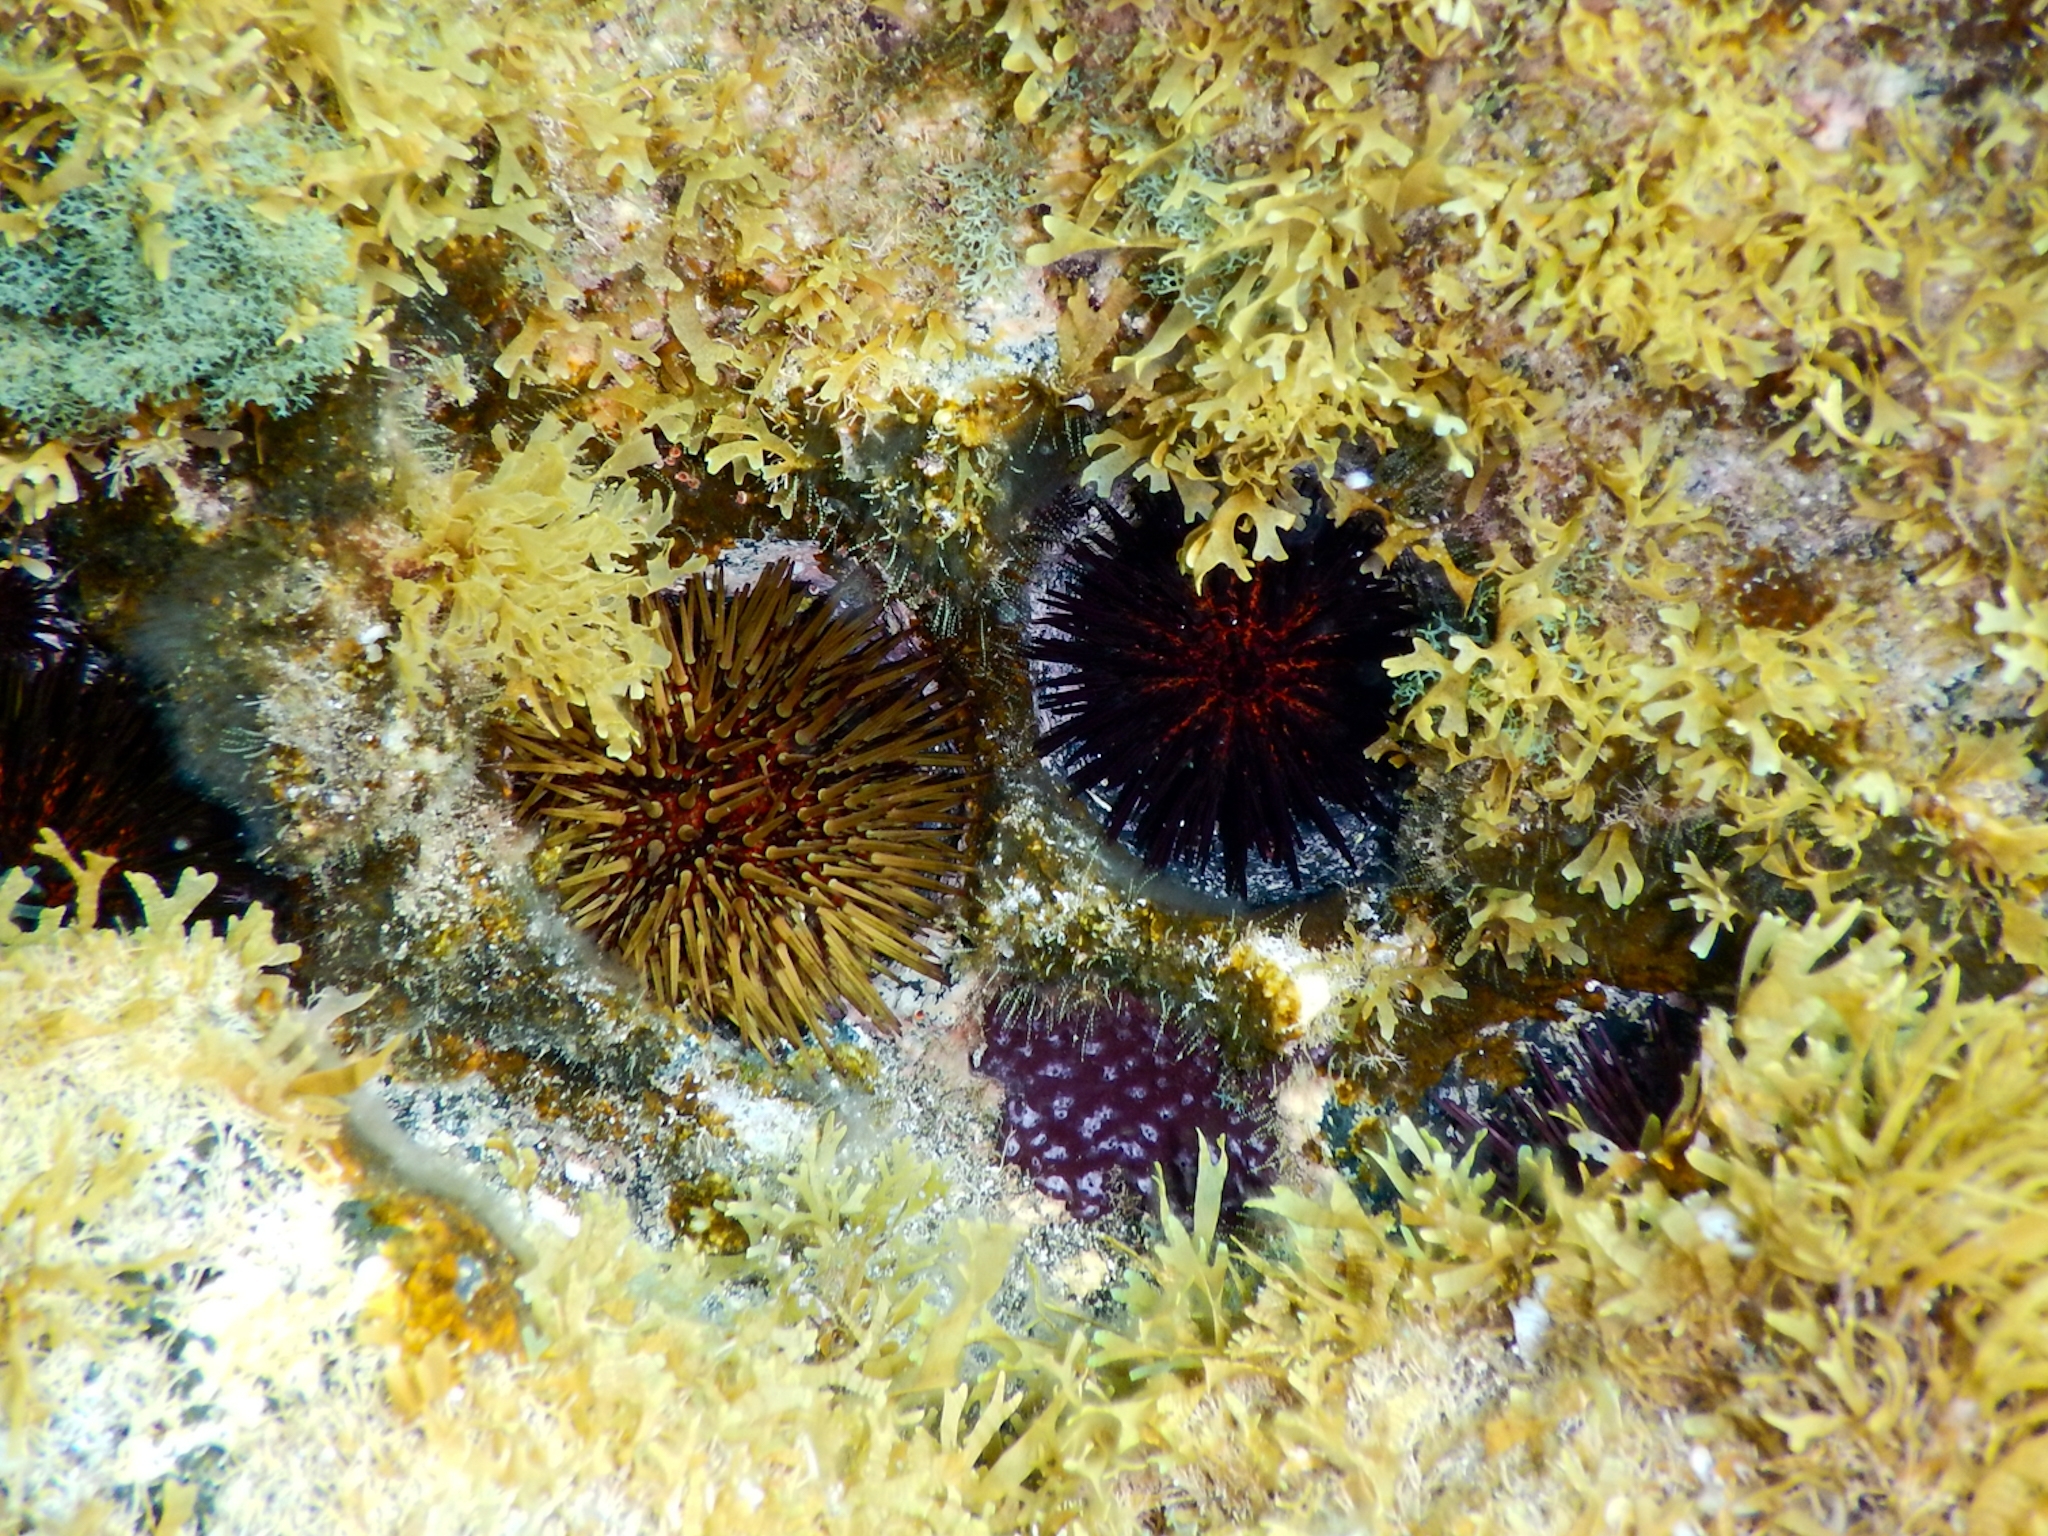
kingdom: Animalia
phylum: Echinodermata
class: Echinoidea
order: Camarodonta
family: Parechinidae
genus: Paracentrotus
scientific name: Paracentrotus lividus
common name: Purple sea urchin
